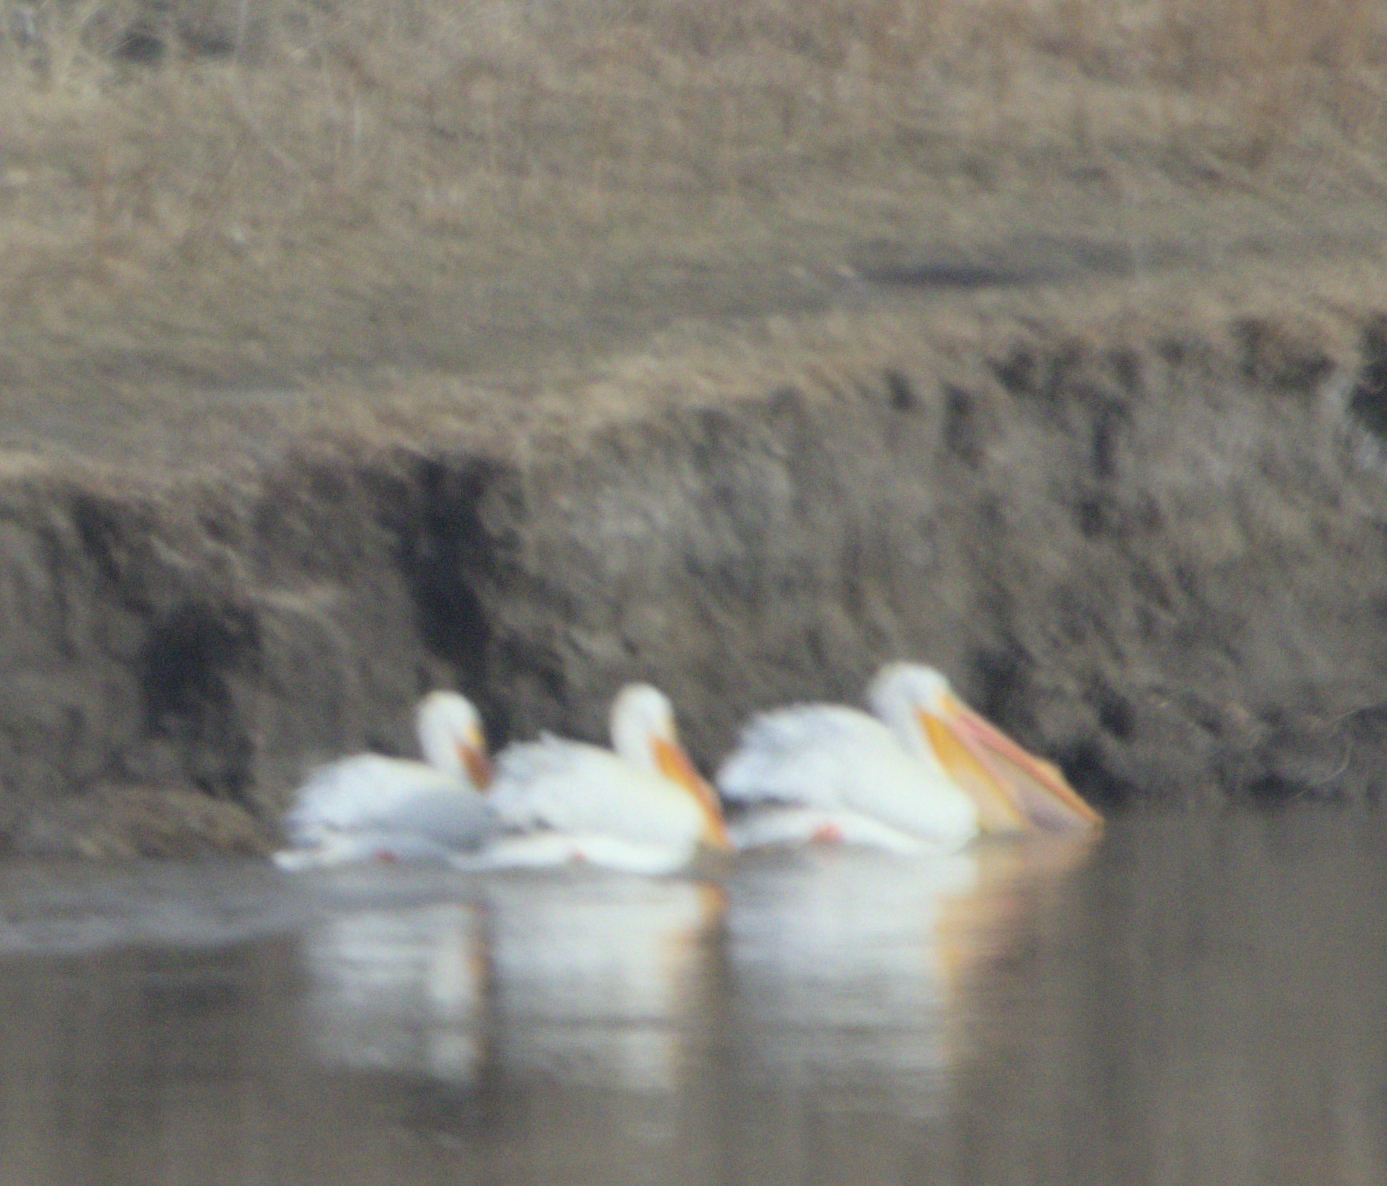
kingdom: Animalia
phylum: Chordata
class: Aves
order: Pelecaniformes
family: Pelecanidae
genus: Pelecanus
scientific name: Pelecanus erythrorhynchos
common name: American white pelican
